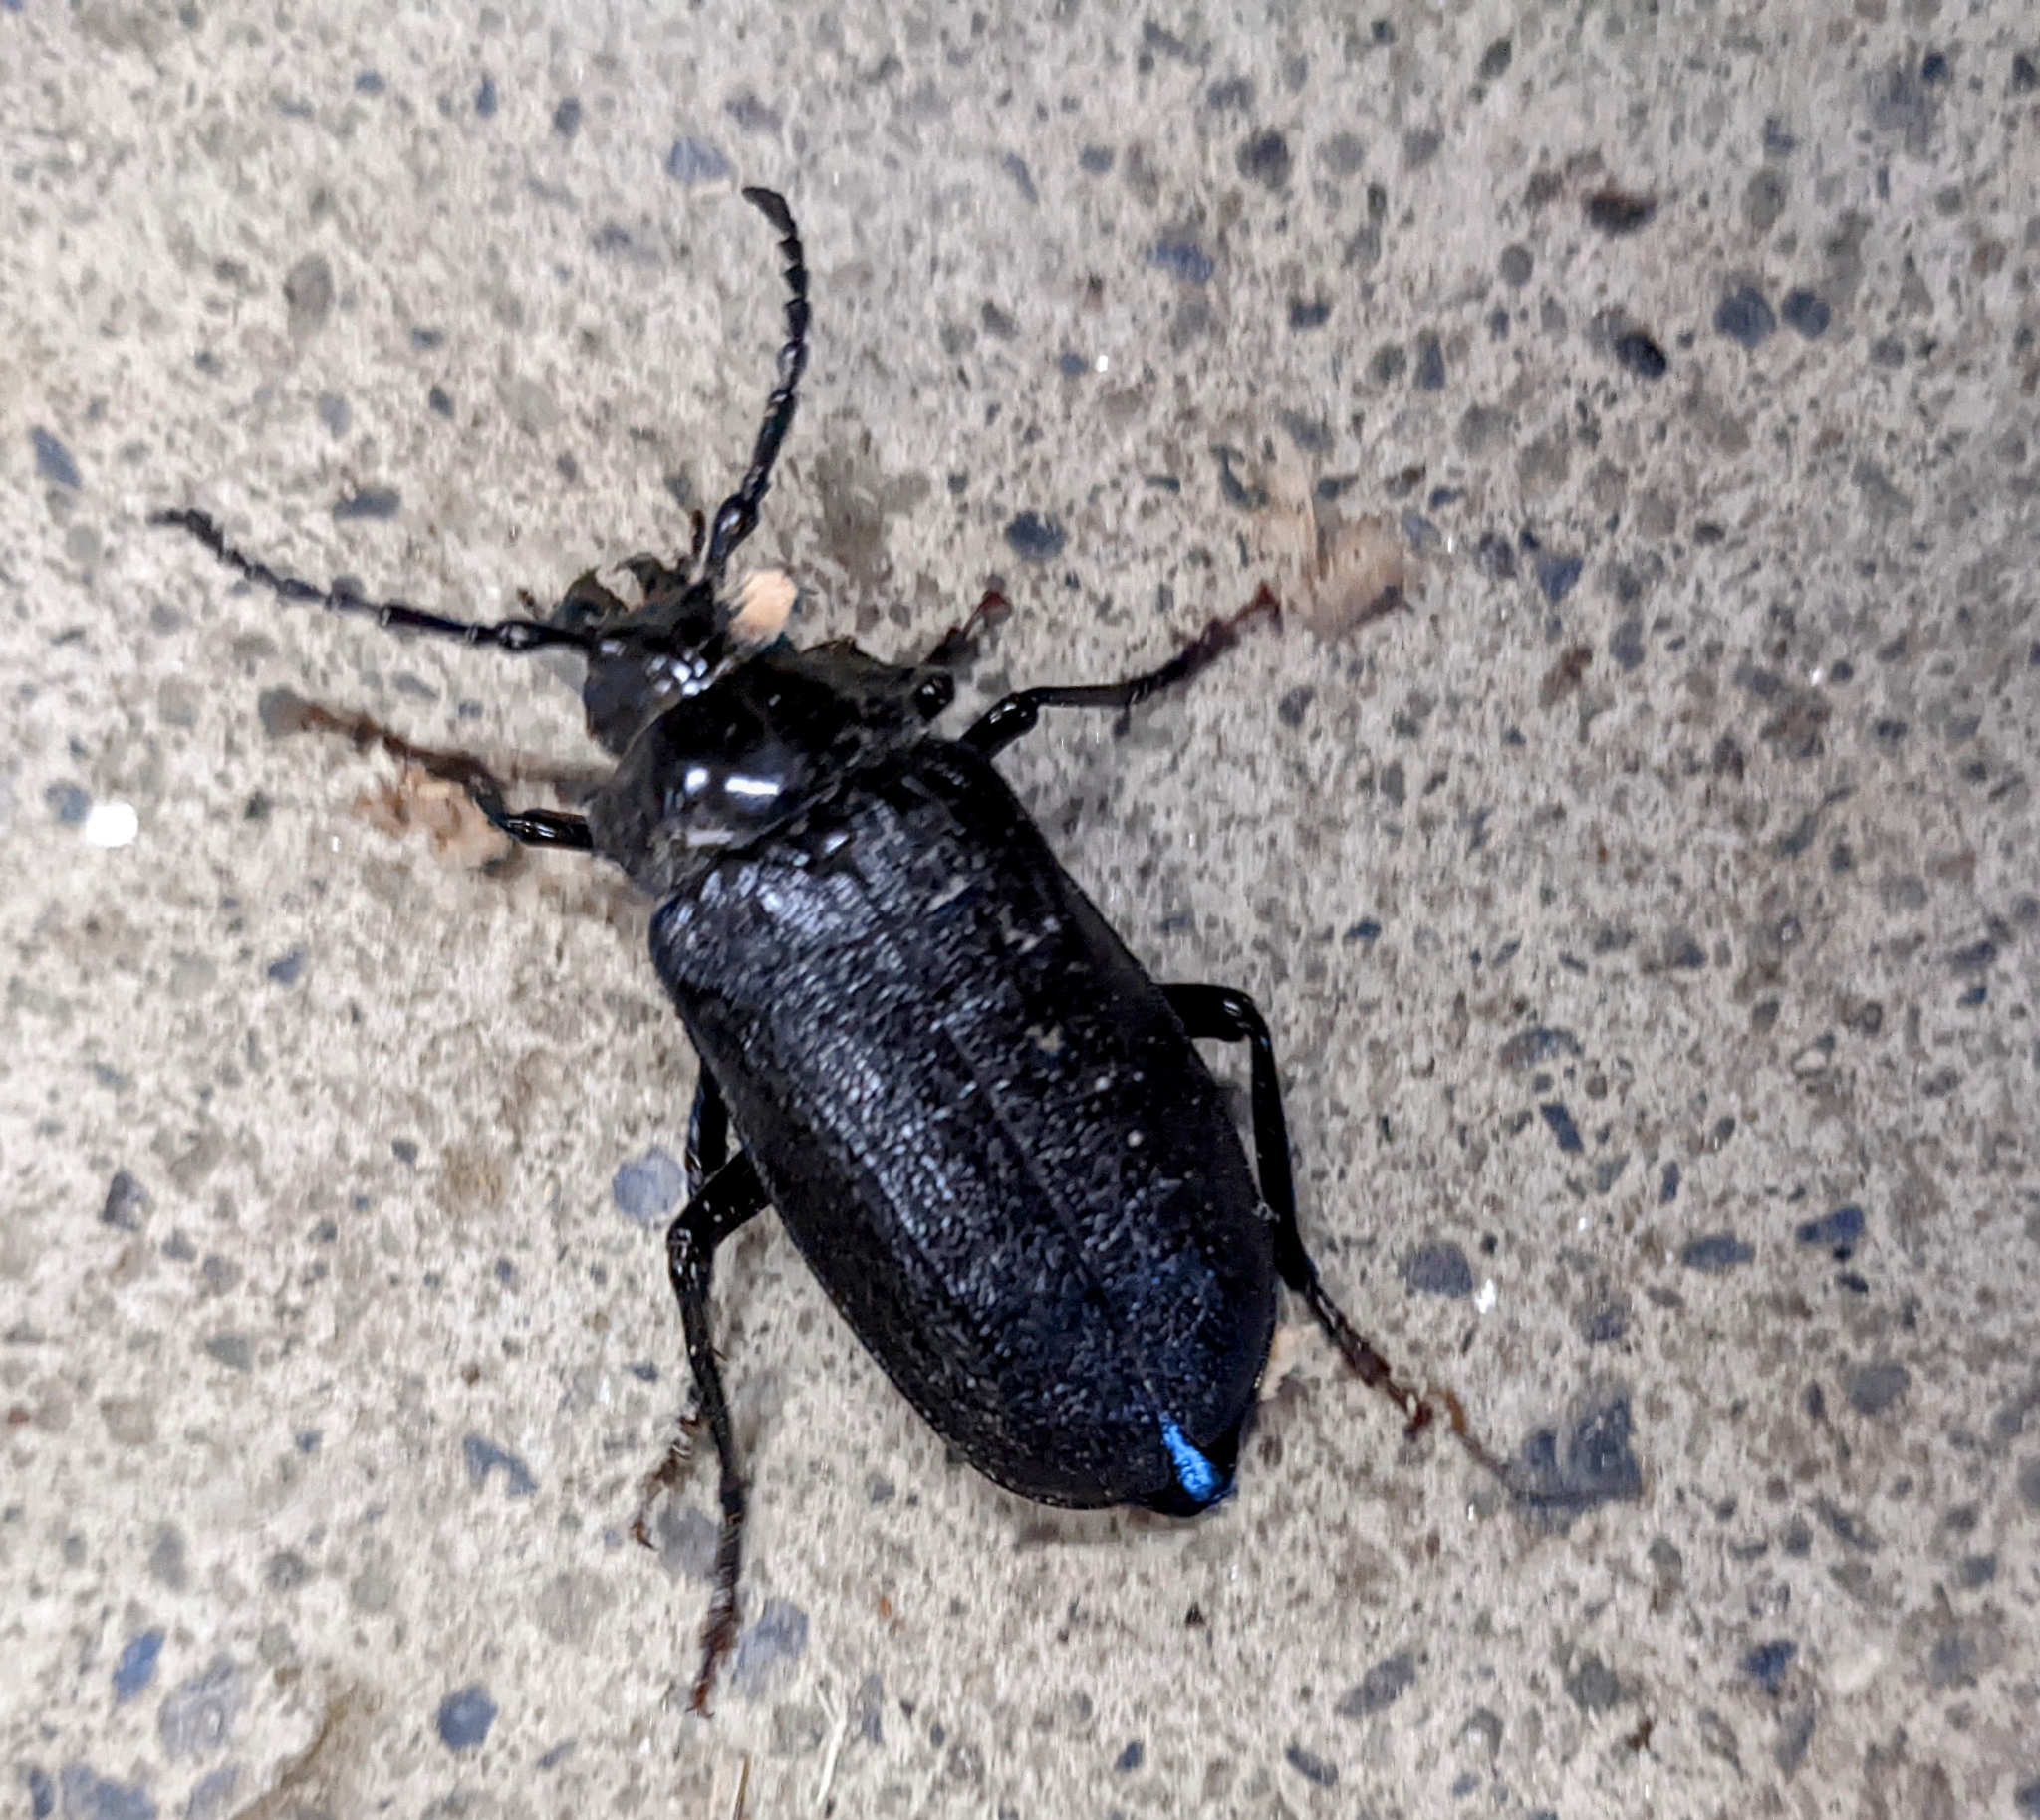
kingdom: Animalia
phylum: Arthropoda
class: Insecta
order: Coleoptera
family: Cerambycidae
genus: Prionus
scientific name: Prionus laticollis
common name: Broad necked prionus
